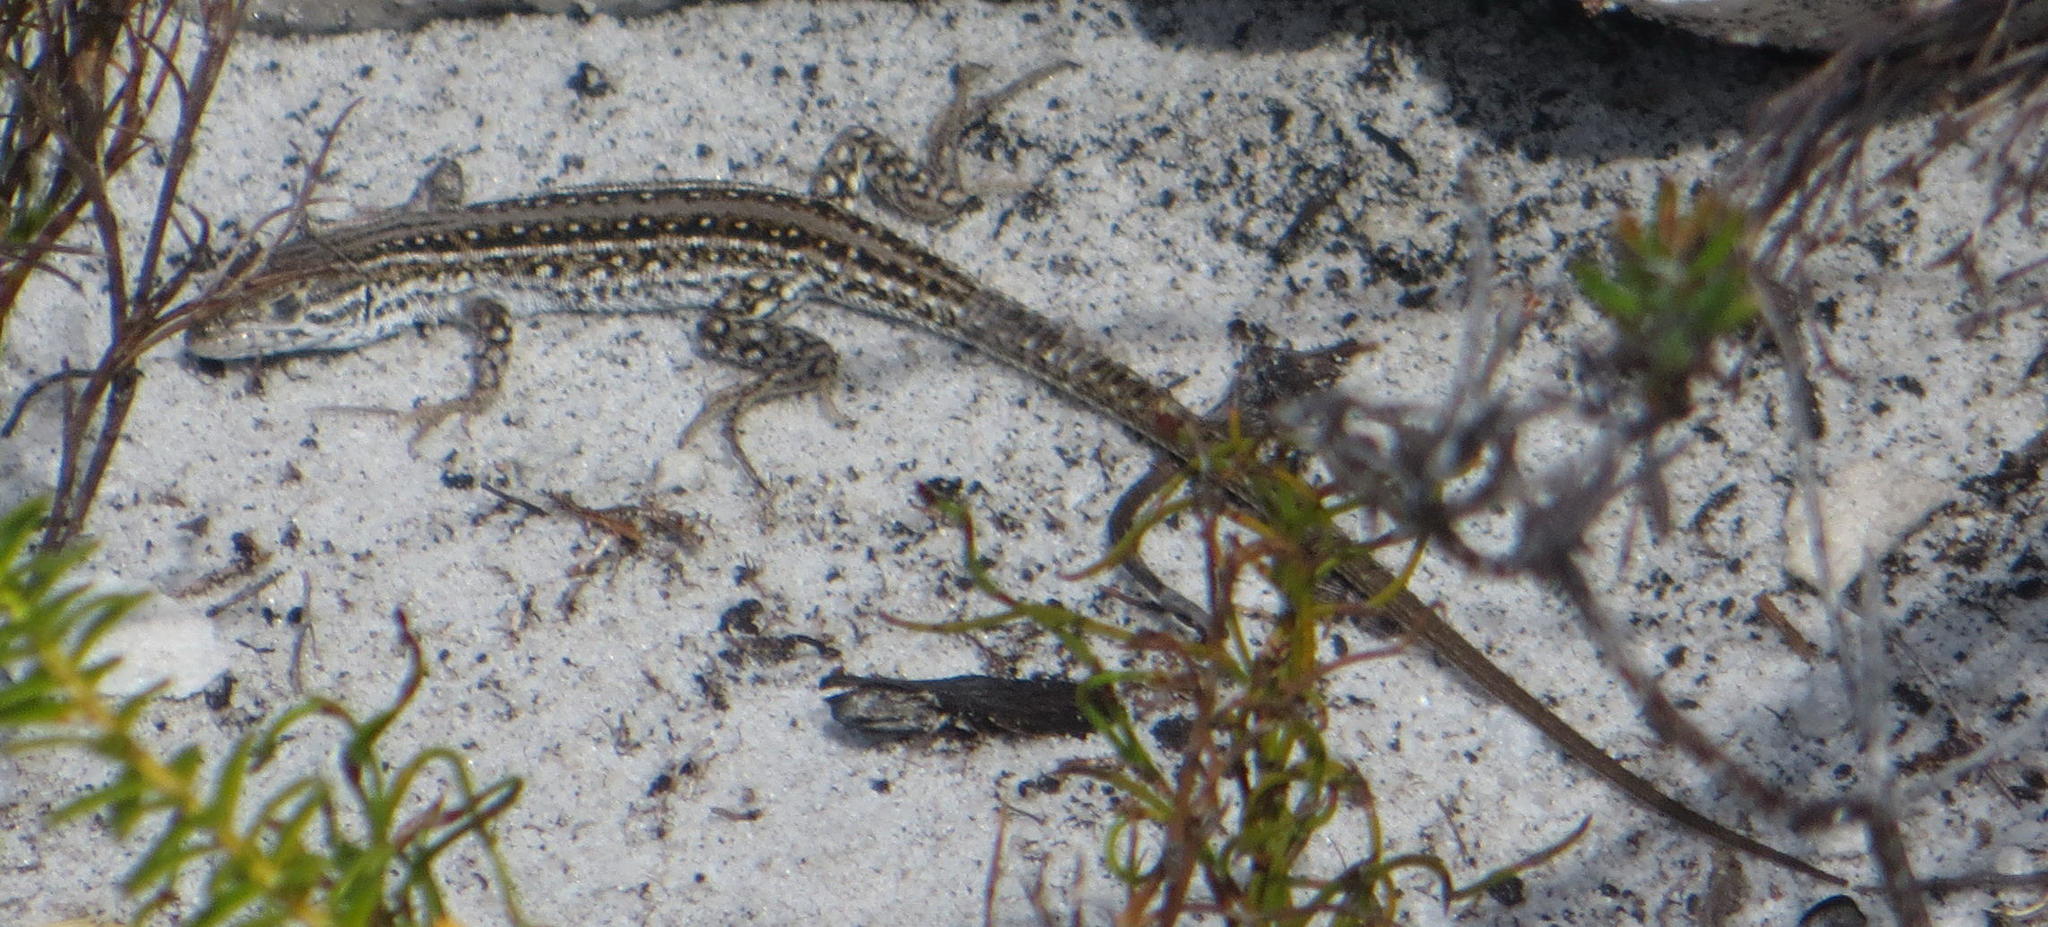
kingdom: Animalia
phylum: Chordata
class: Squamata
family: Lacertidae
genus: Meroles
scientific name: Meroles knoxii
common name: Knox's desert lizard
